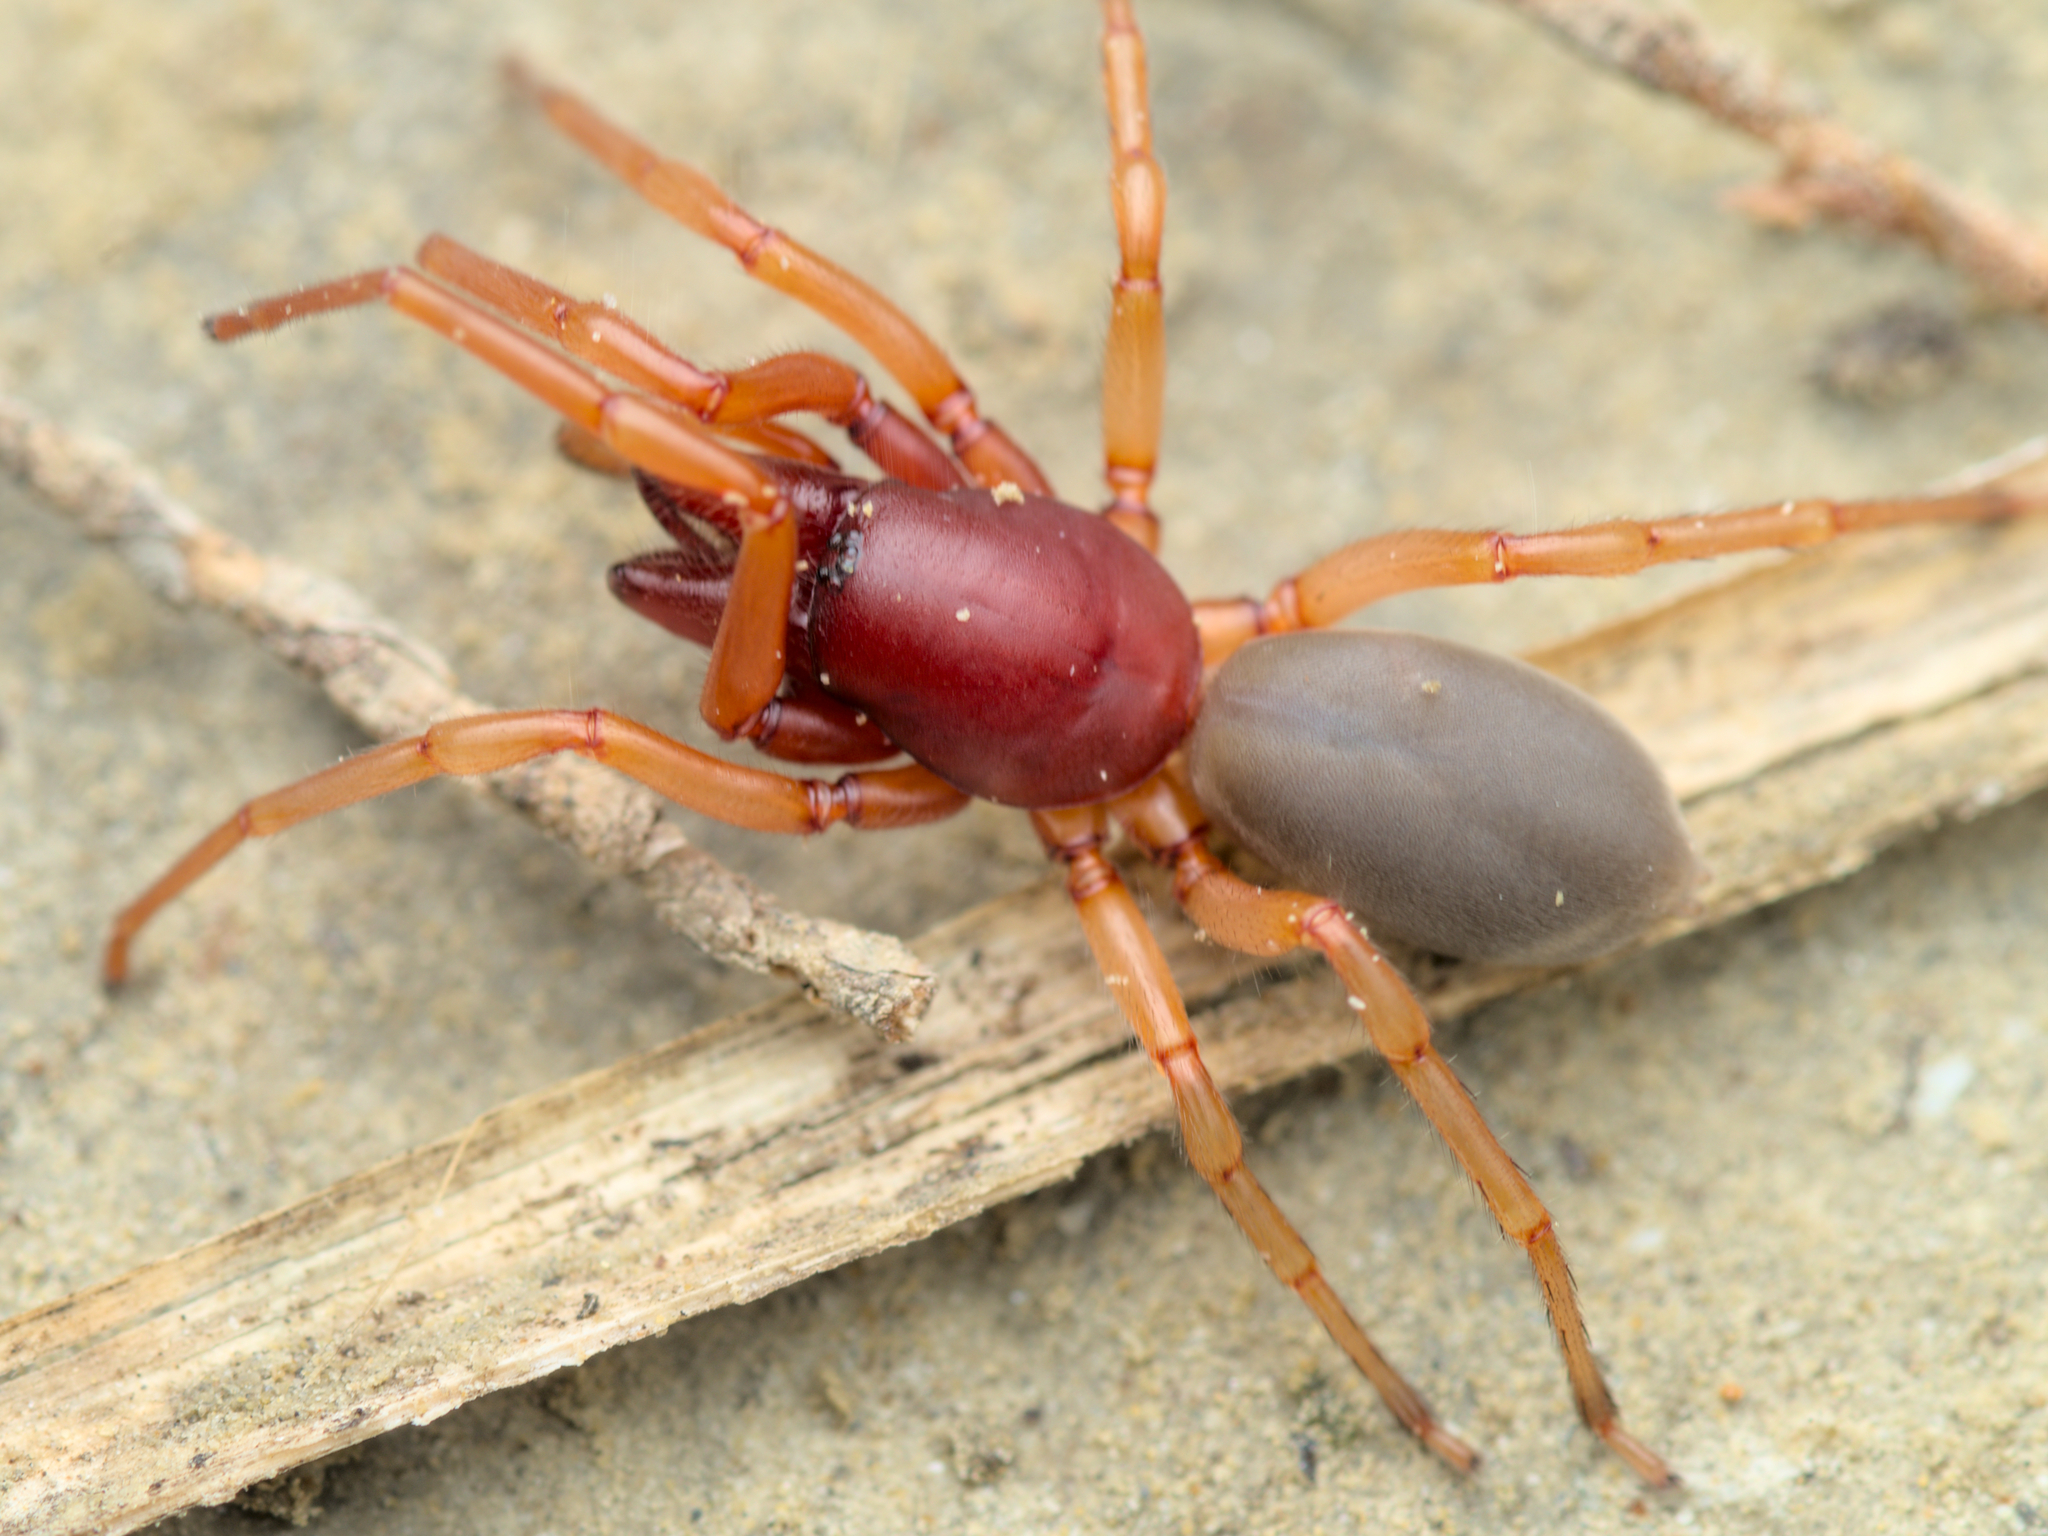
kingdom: Animalia
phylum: Arthropoda
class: Arachnida
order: Araneae
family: Dysderidae
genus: Dysdera
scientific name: Dysdera crocata
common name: Woodlouse spider
